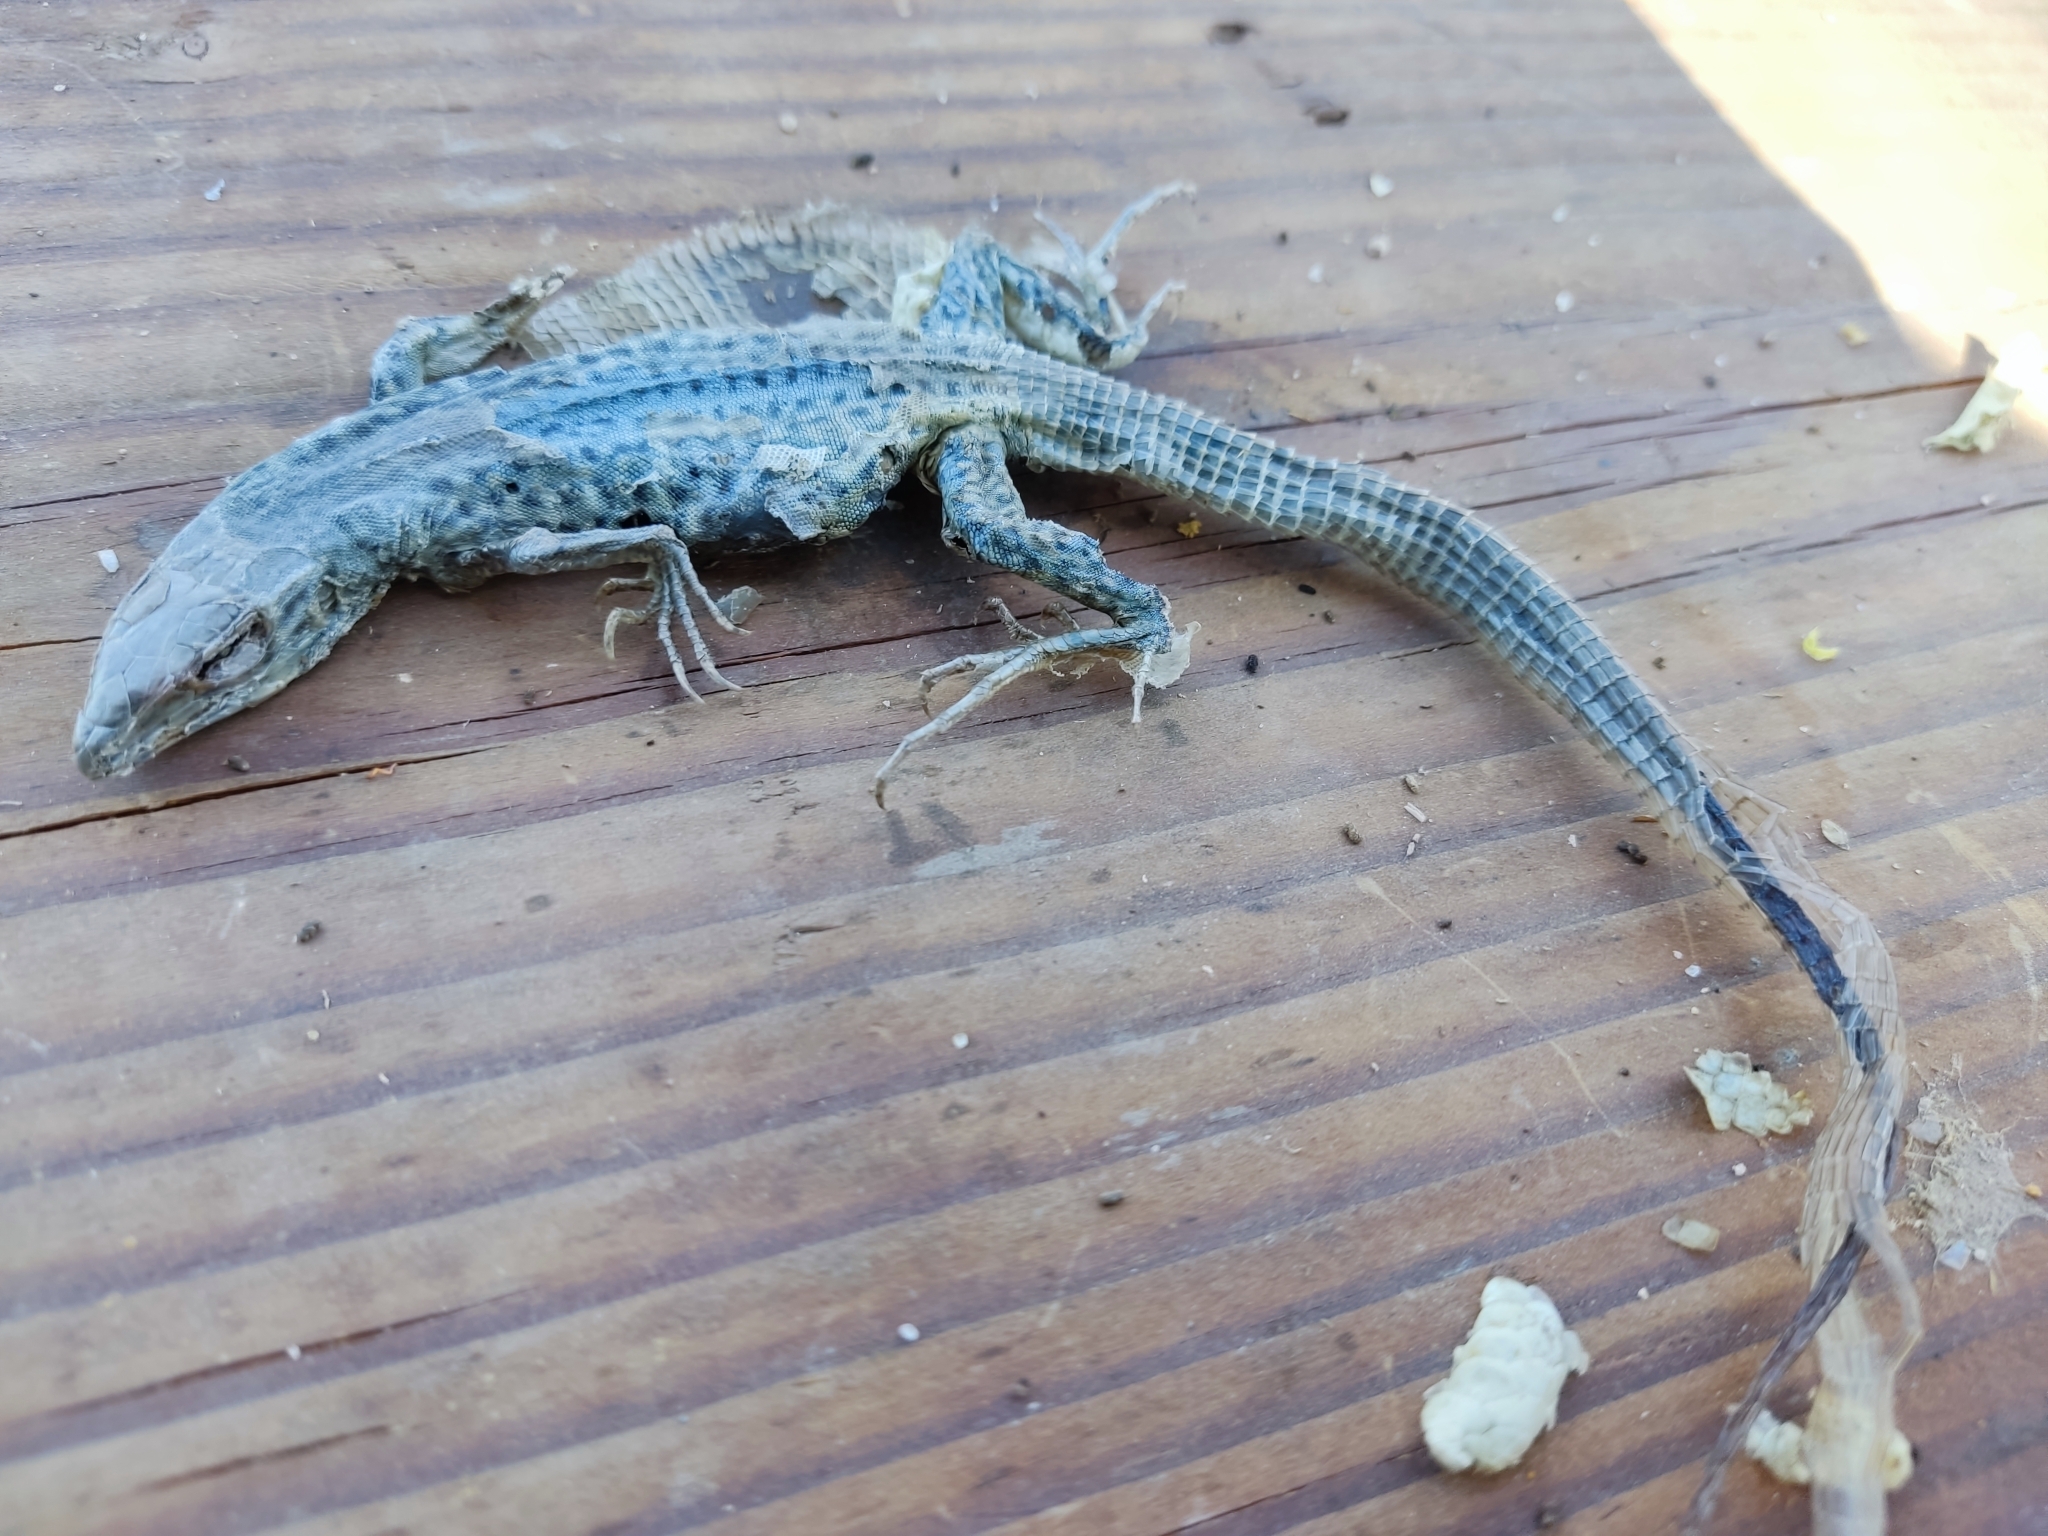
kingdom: Animalia
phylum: Chordata
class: Squamata
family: Teiidae
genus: Aspidoscelis
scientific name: Aspidoscelis tigris
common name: Tiger whiptail
